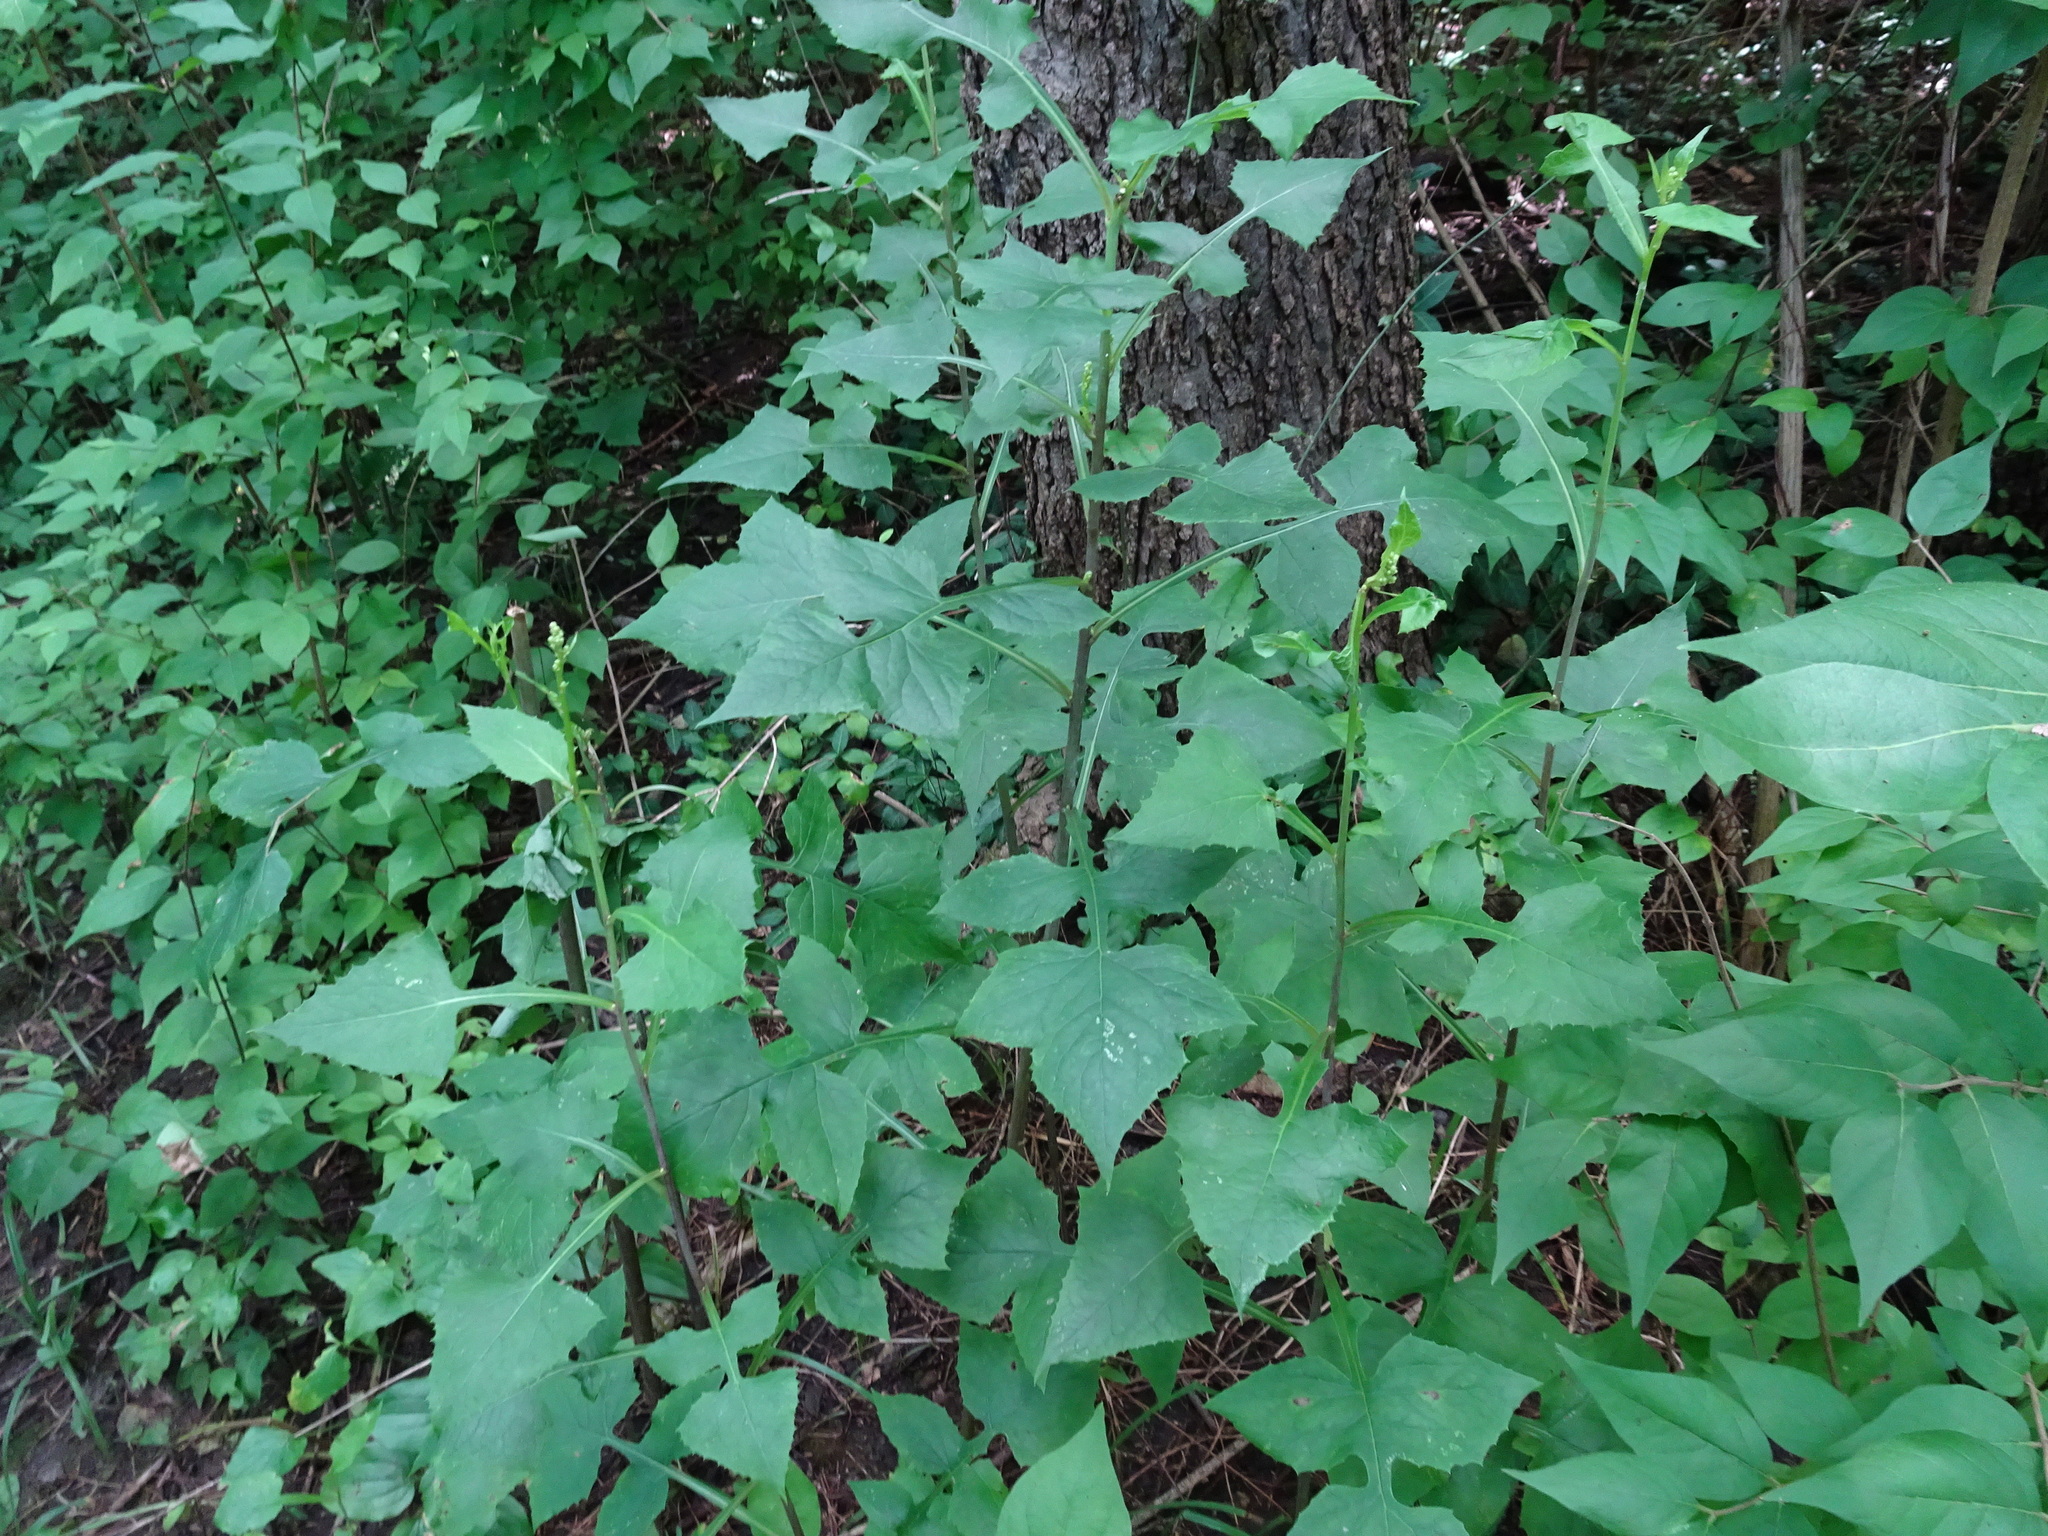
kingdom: Plantae
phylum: Tracheophyta
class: Magnoliopsida
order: Asterales
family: Asteraceae
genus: Lactuca
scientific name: Lactuca floridana
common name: Woodland lettuce
